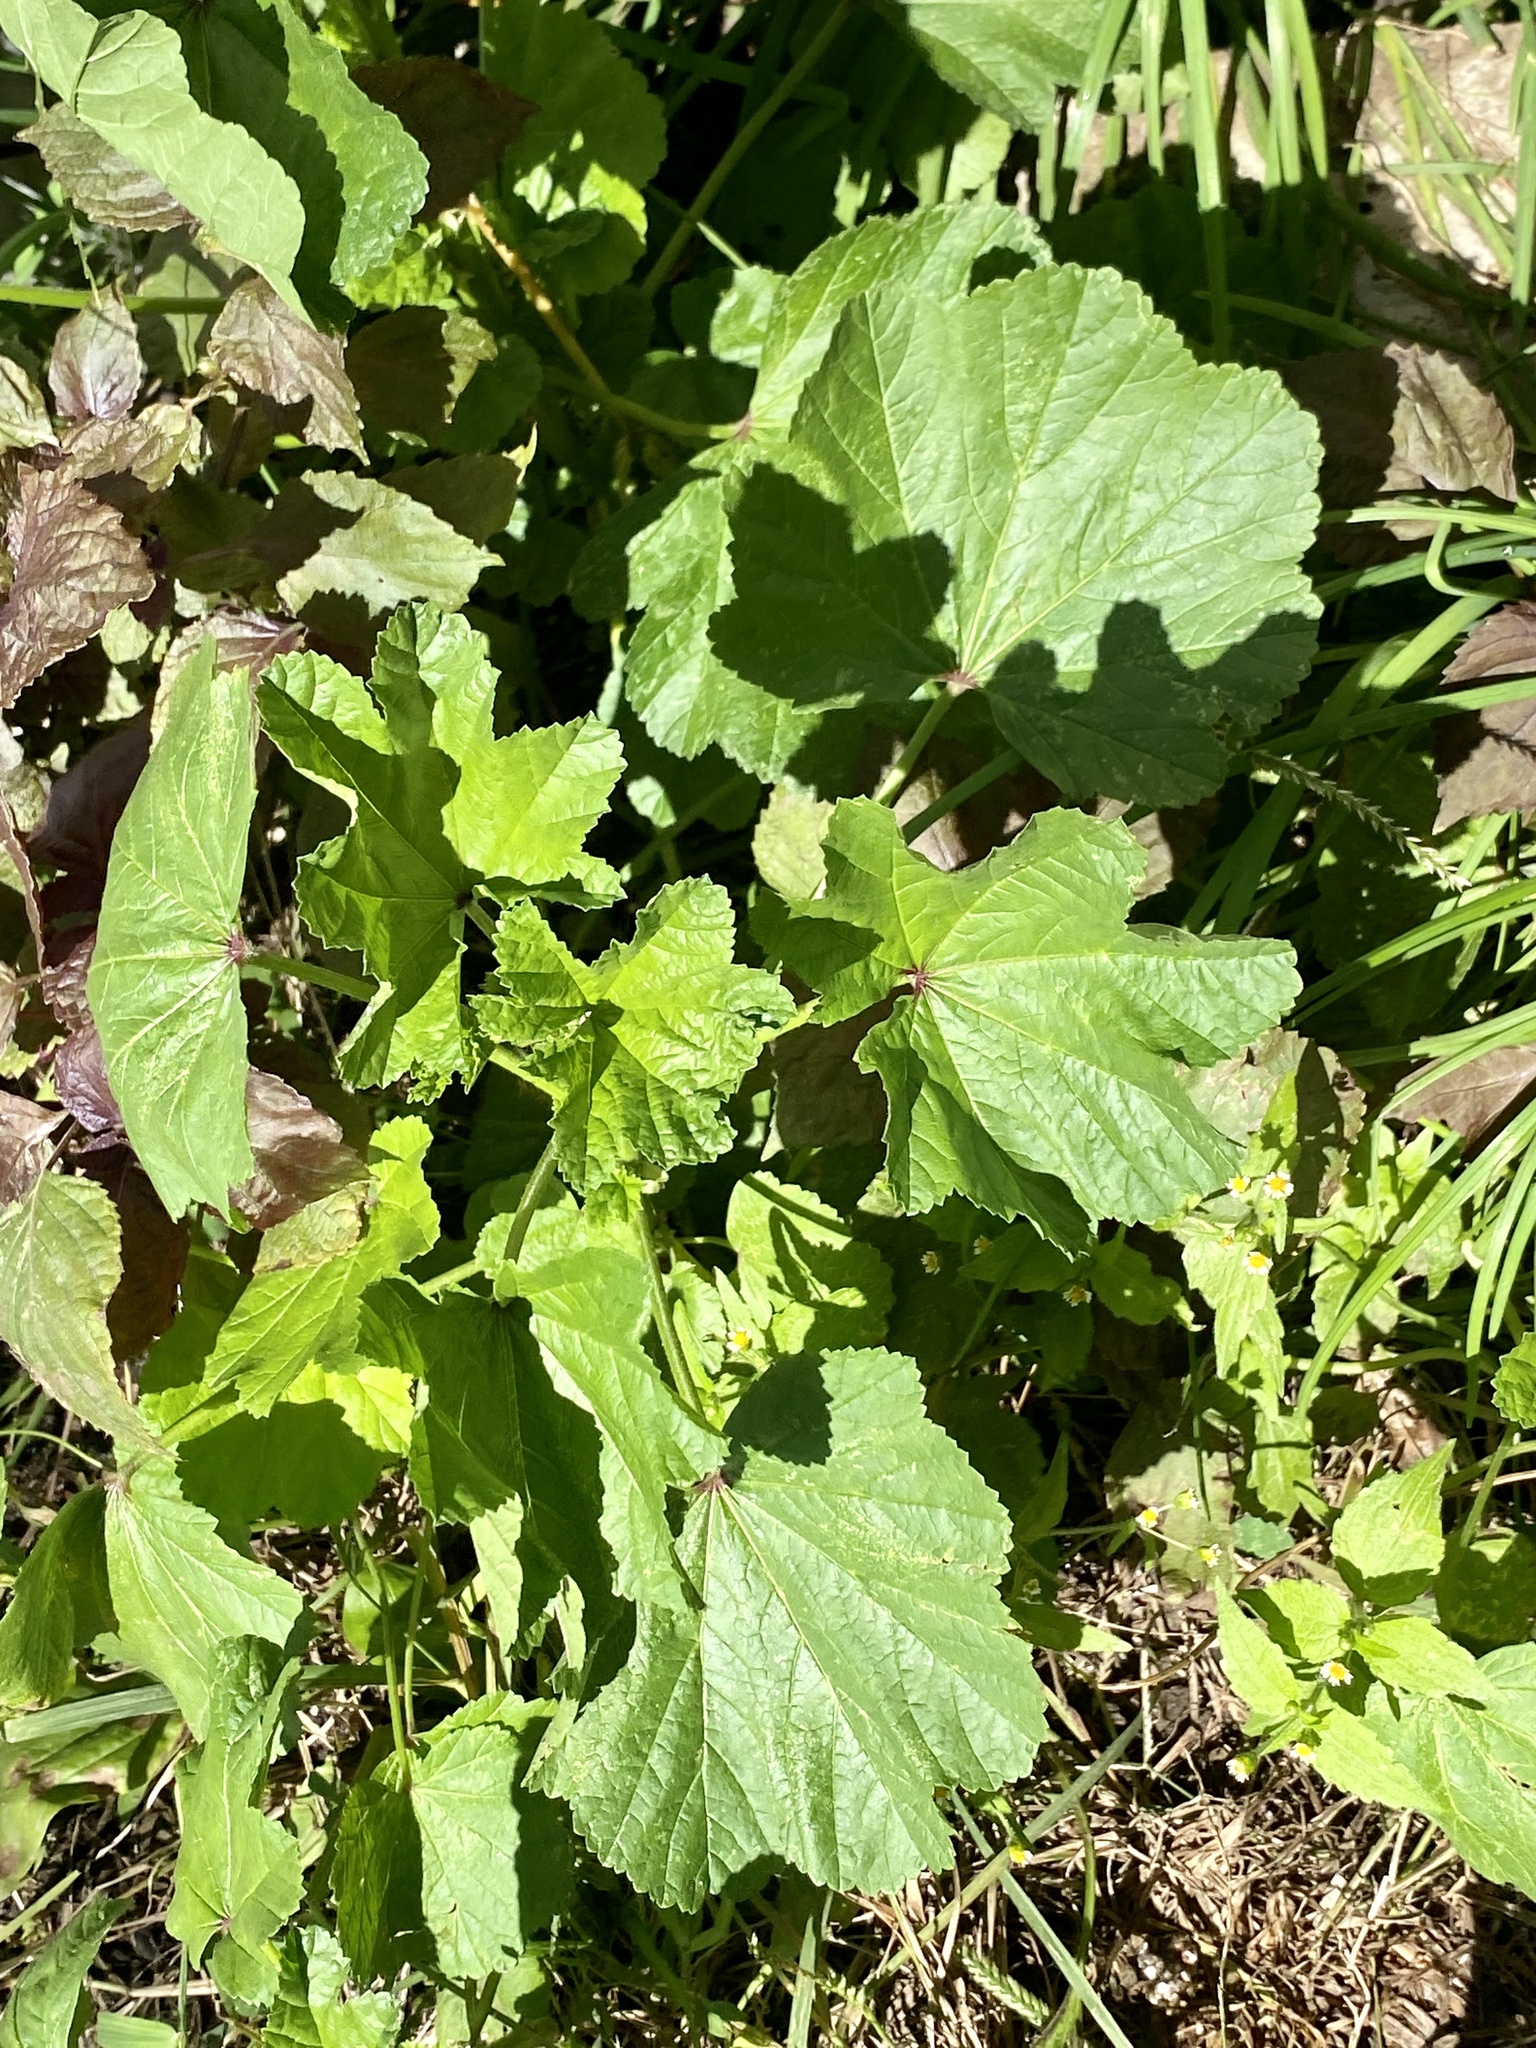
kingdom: Plantae
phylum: Tracheophyta
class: Magnoliopsida
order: Malvales
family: Malvaceae
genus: Malva
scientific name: Malva sylvestris
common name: Common mallow
